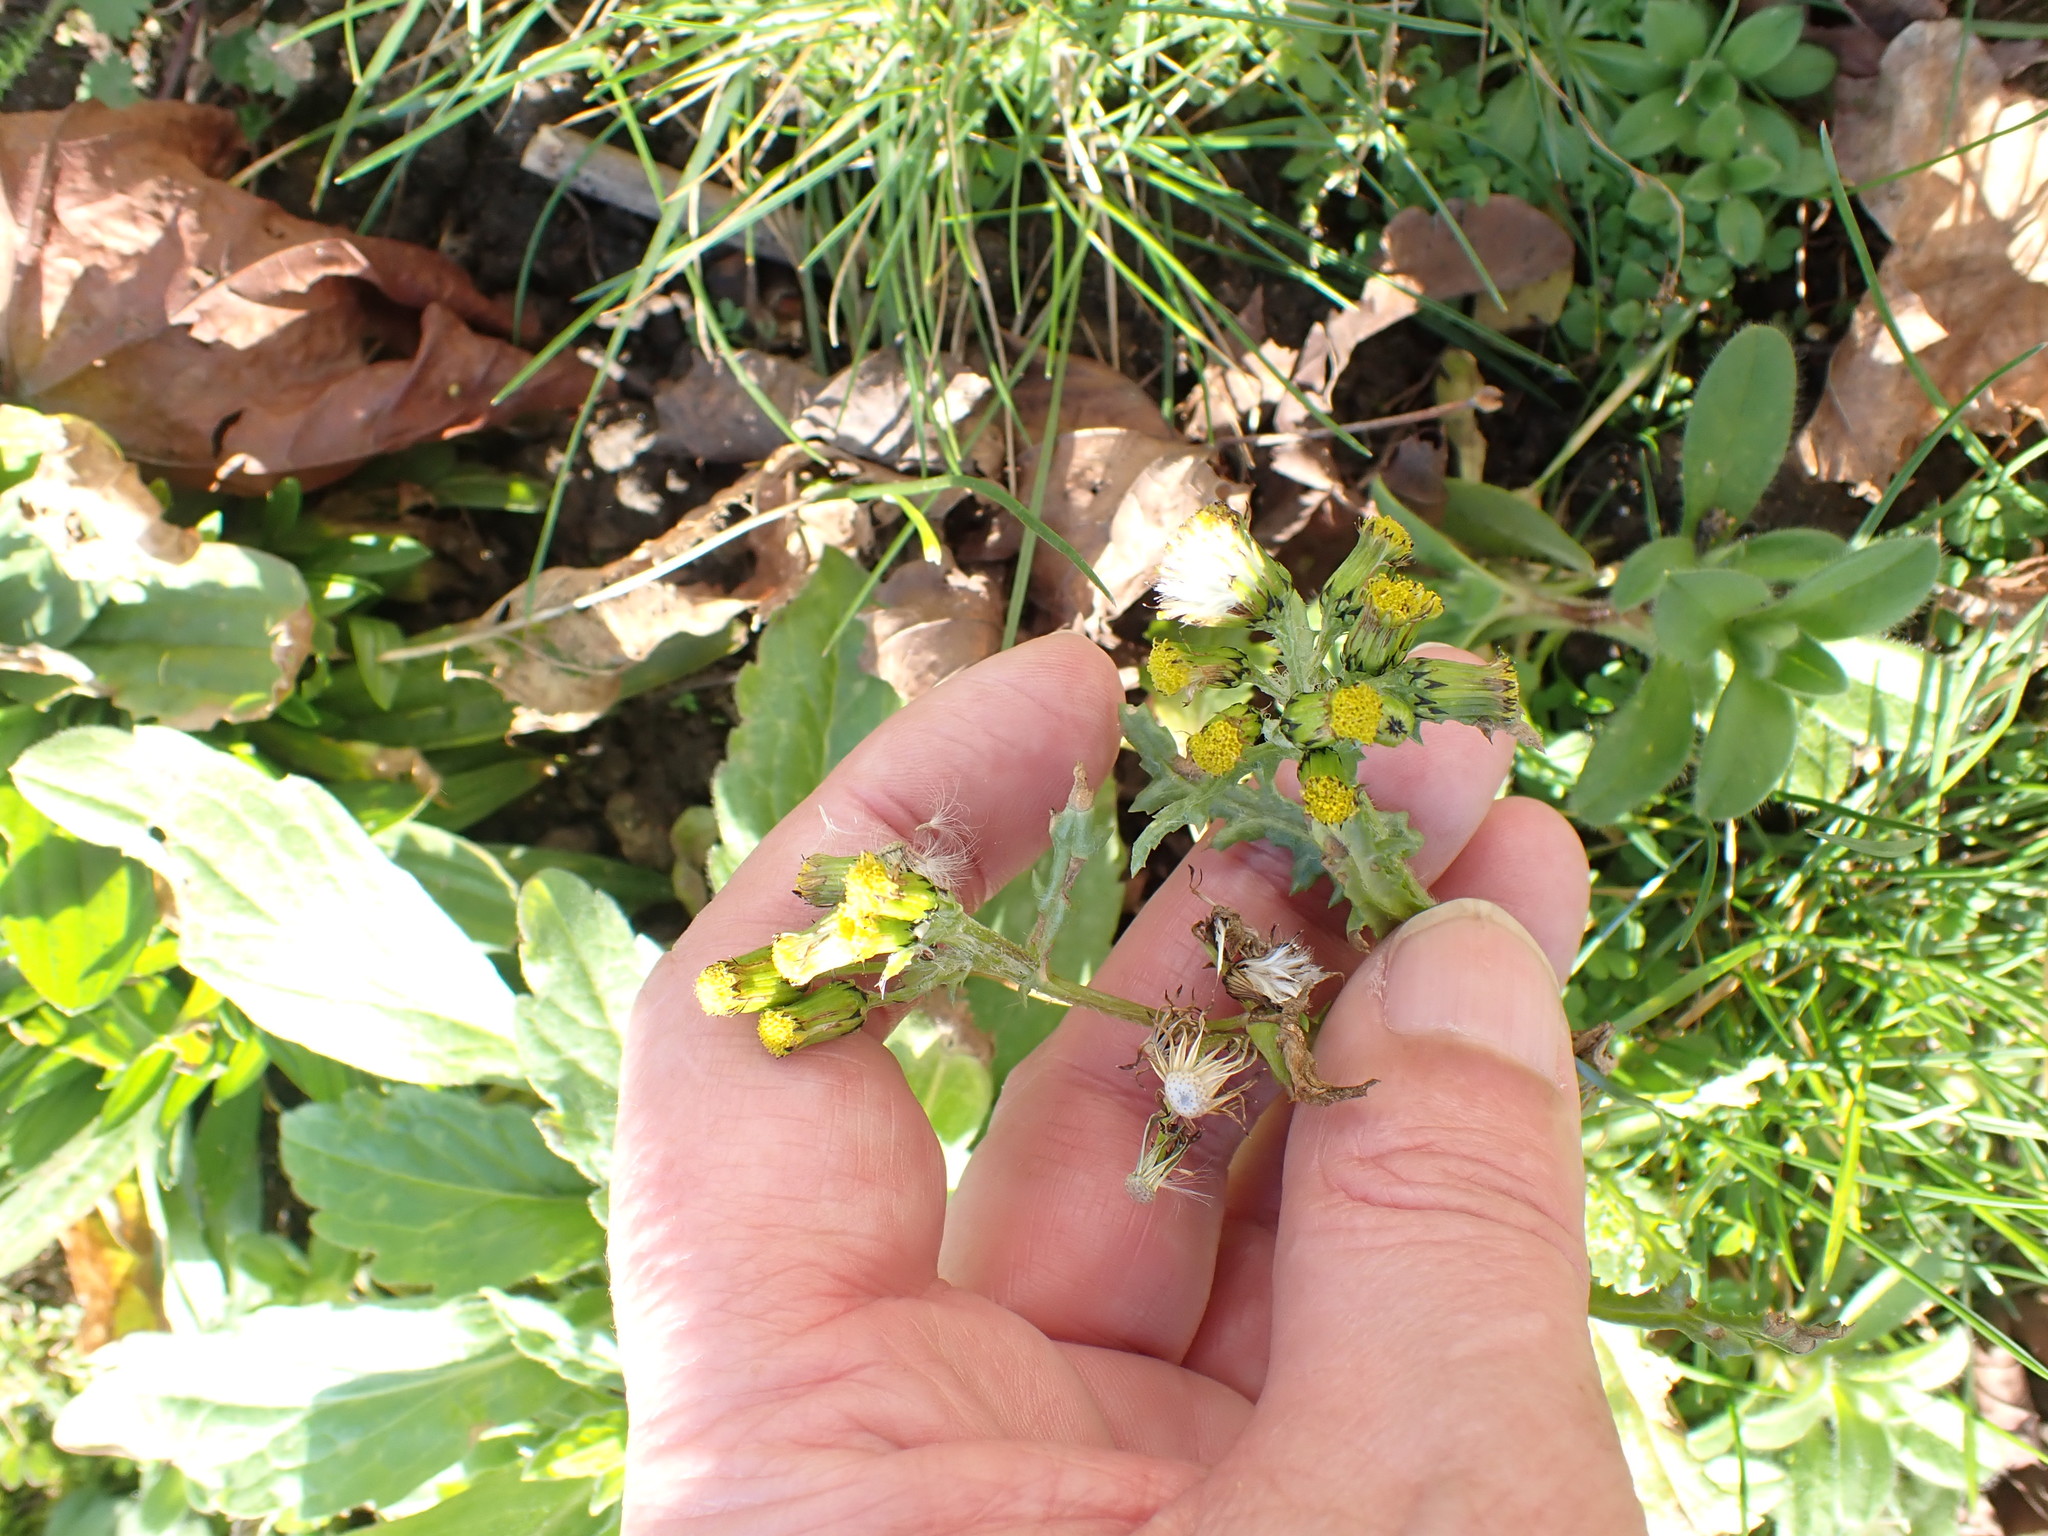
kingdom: Plantae
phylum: Tracheophyta
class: Magnoliopsida
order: Asterales
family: Asteraceae
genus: Senecio
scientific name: Senecio vulgaris
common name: Old-man-in-the-spring
